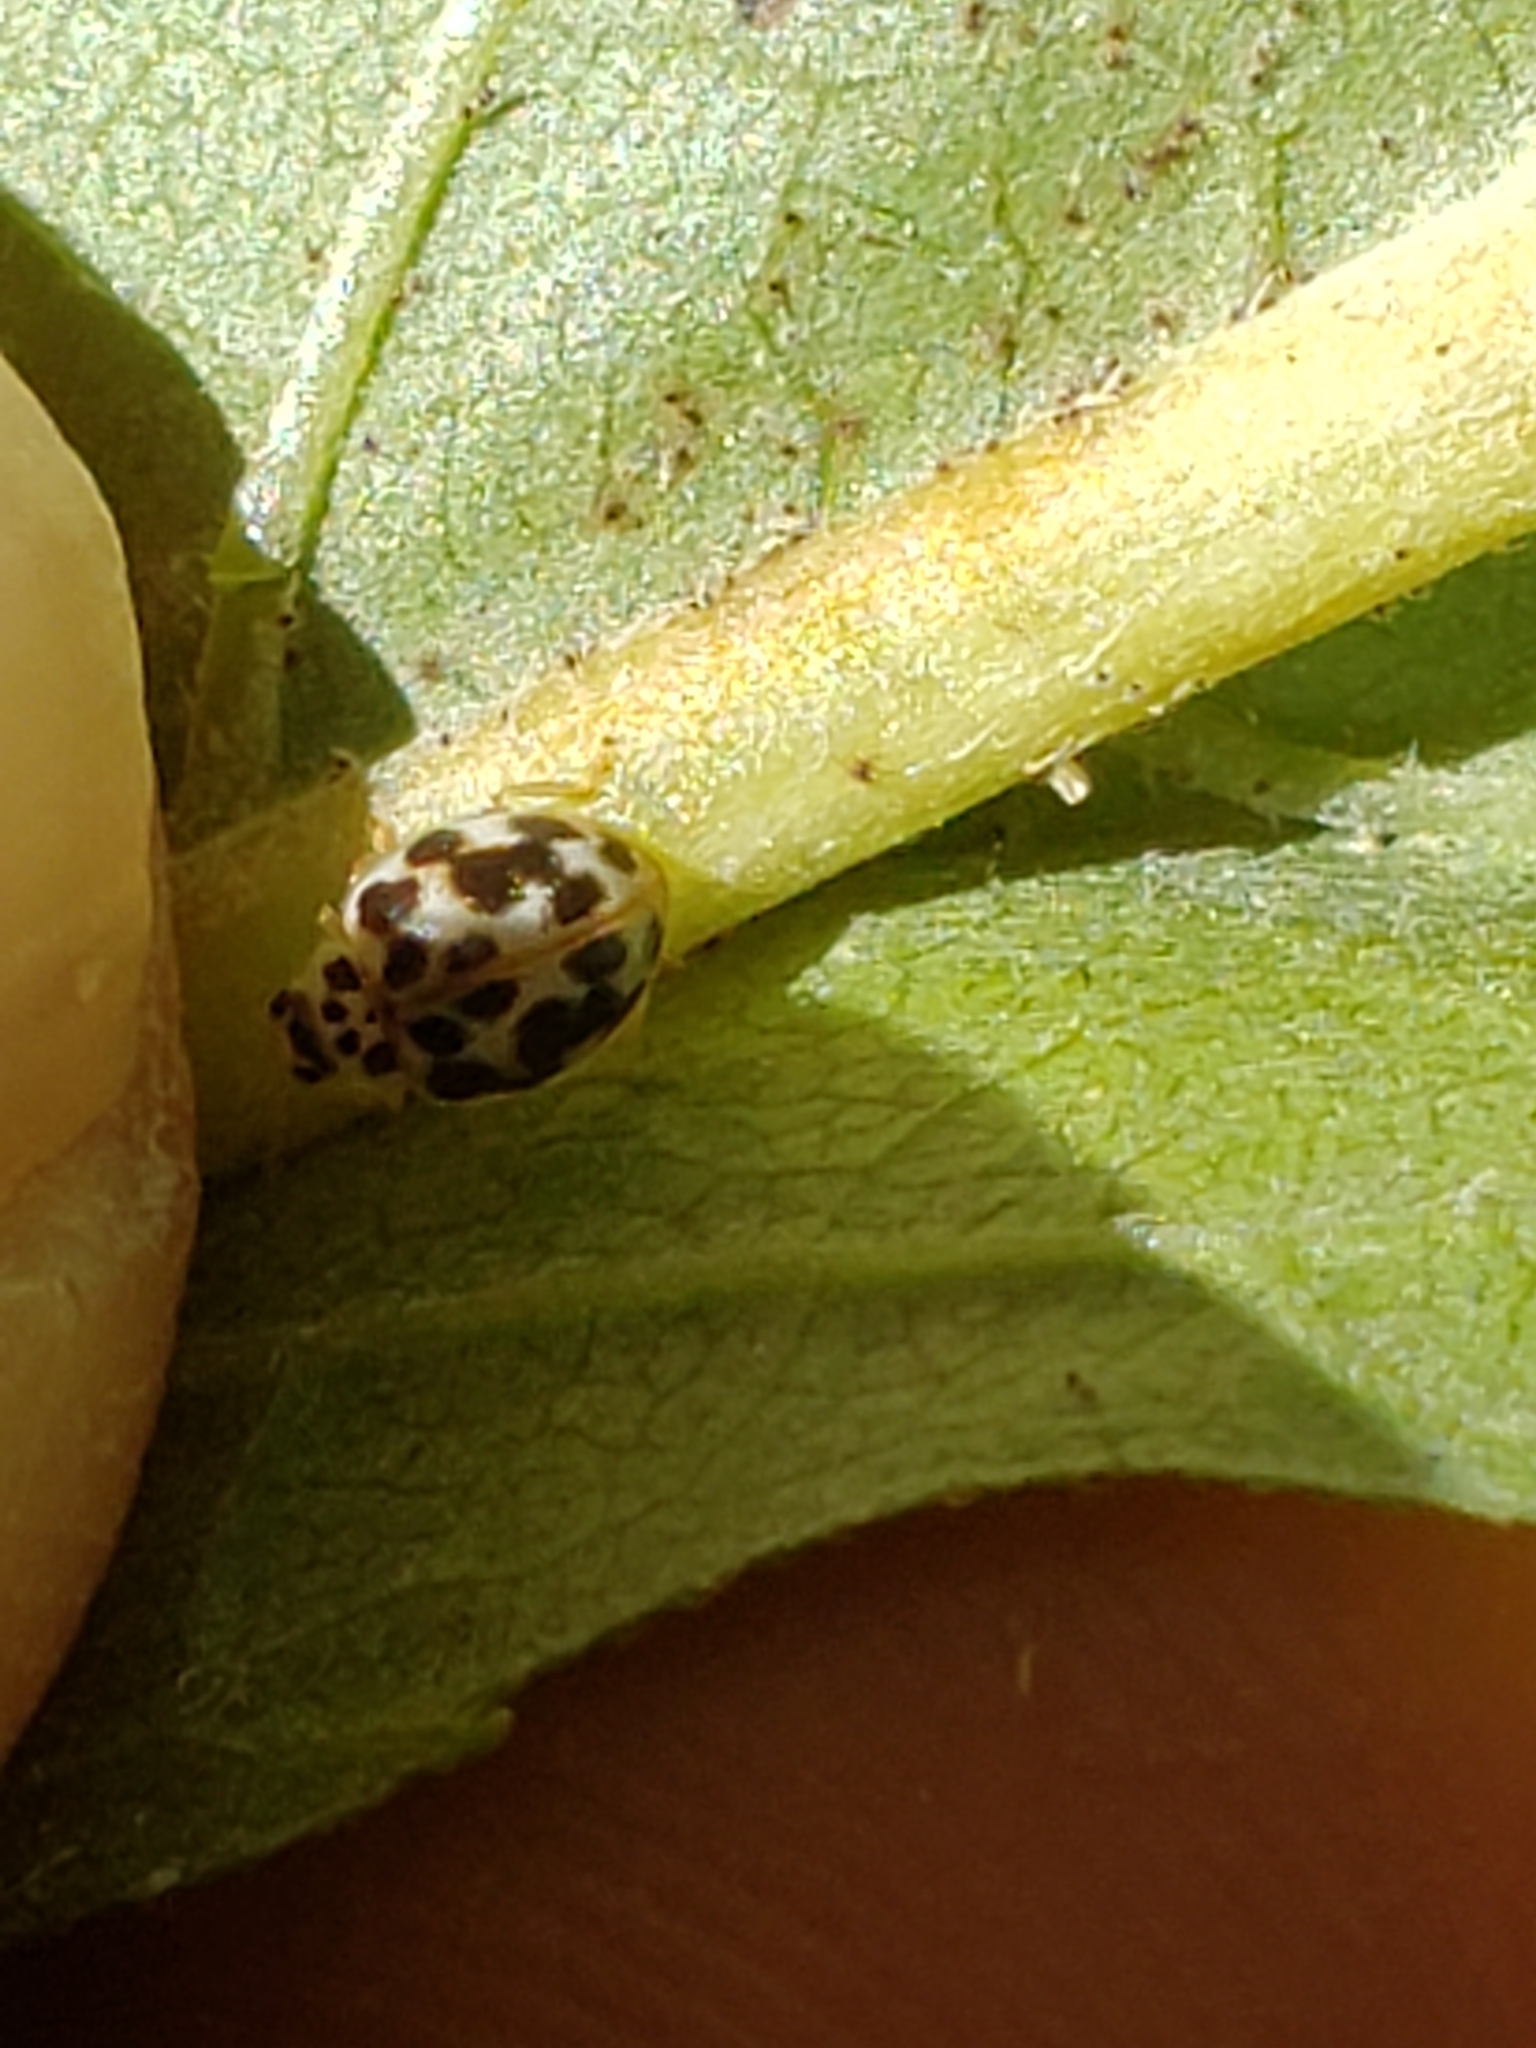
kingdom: Animalia
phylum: Arthropoda
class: Insecta
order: Coleoptera
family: Coccinellidae
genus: Psyllobora
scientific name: Psyllobora vigintimaculata
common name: Ladybird beetle
